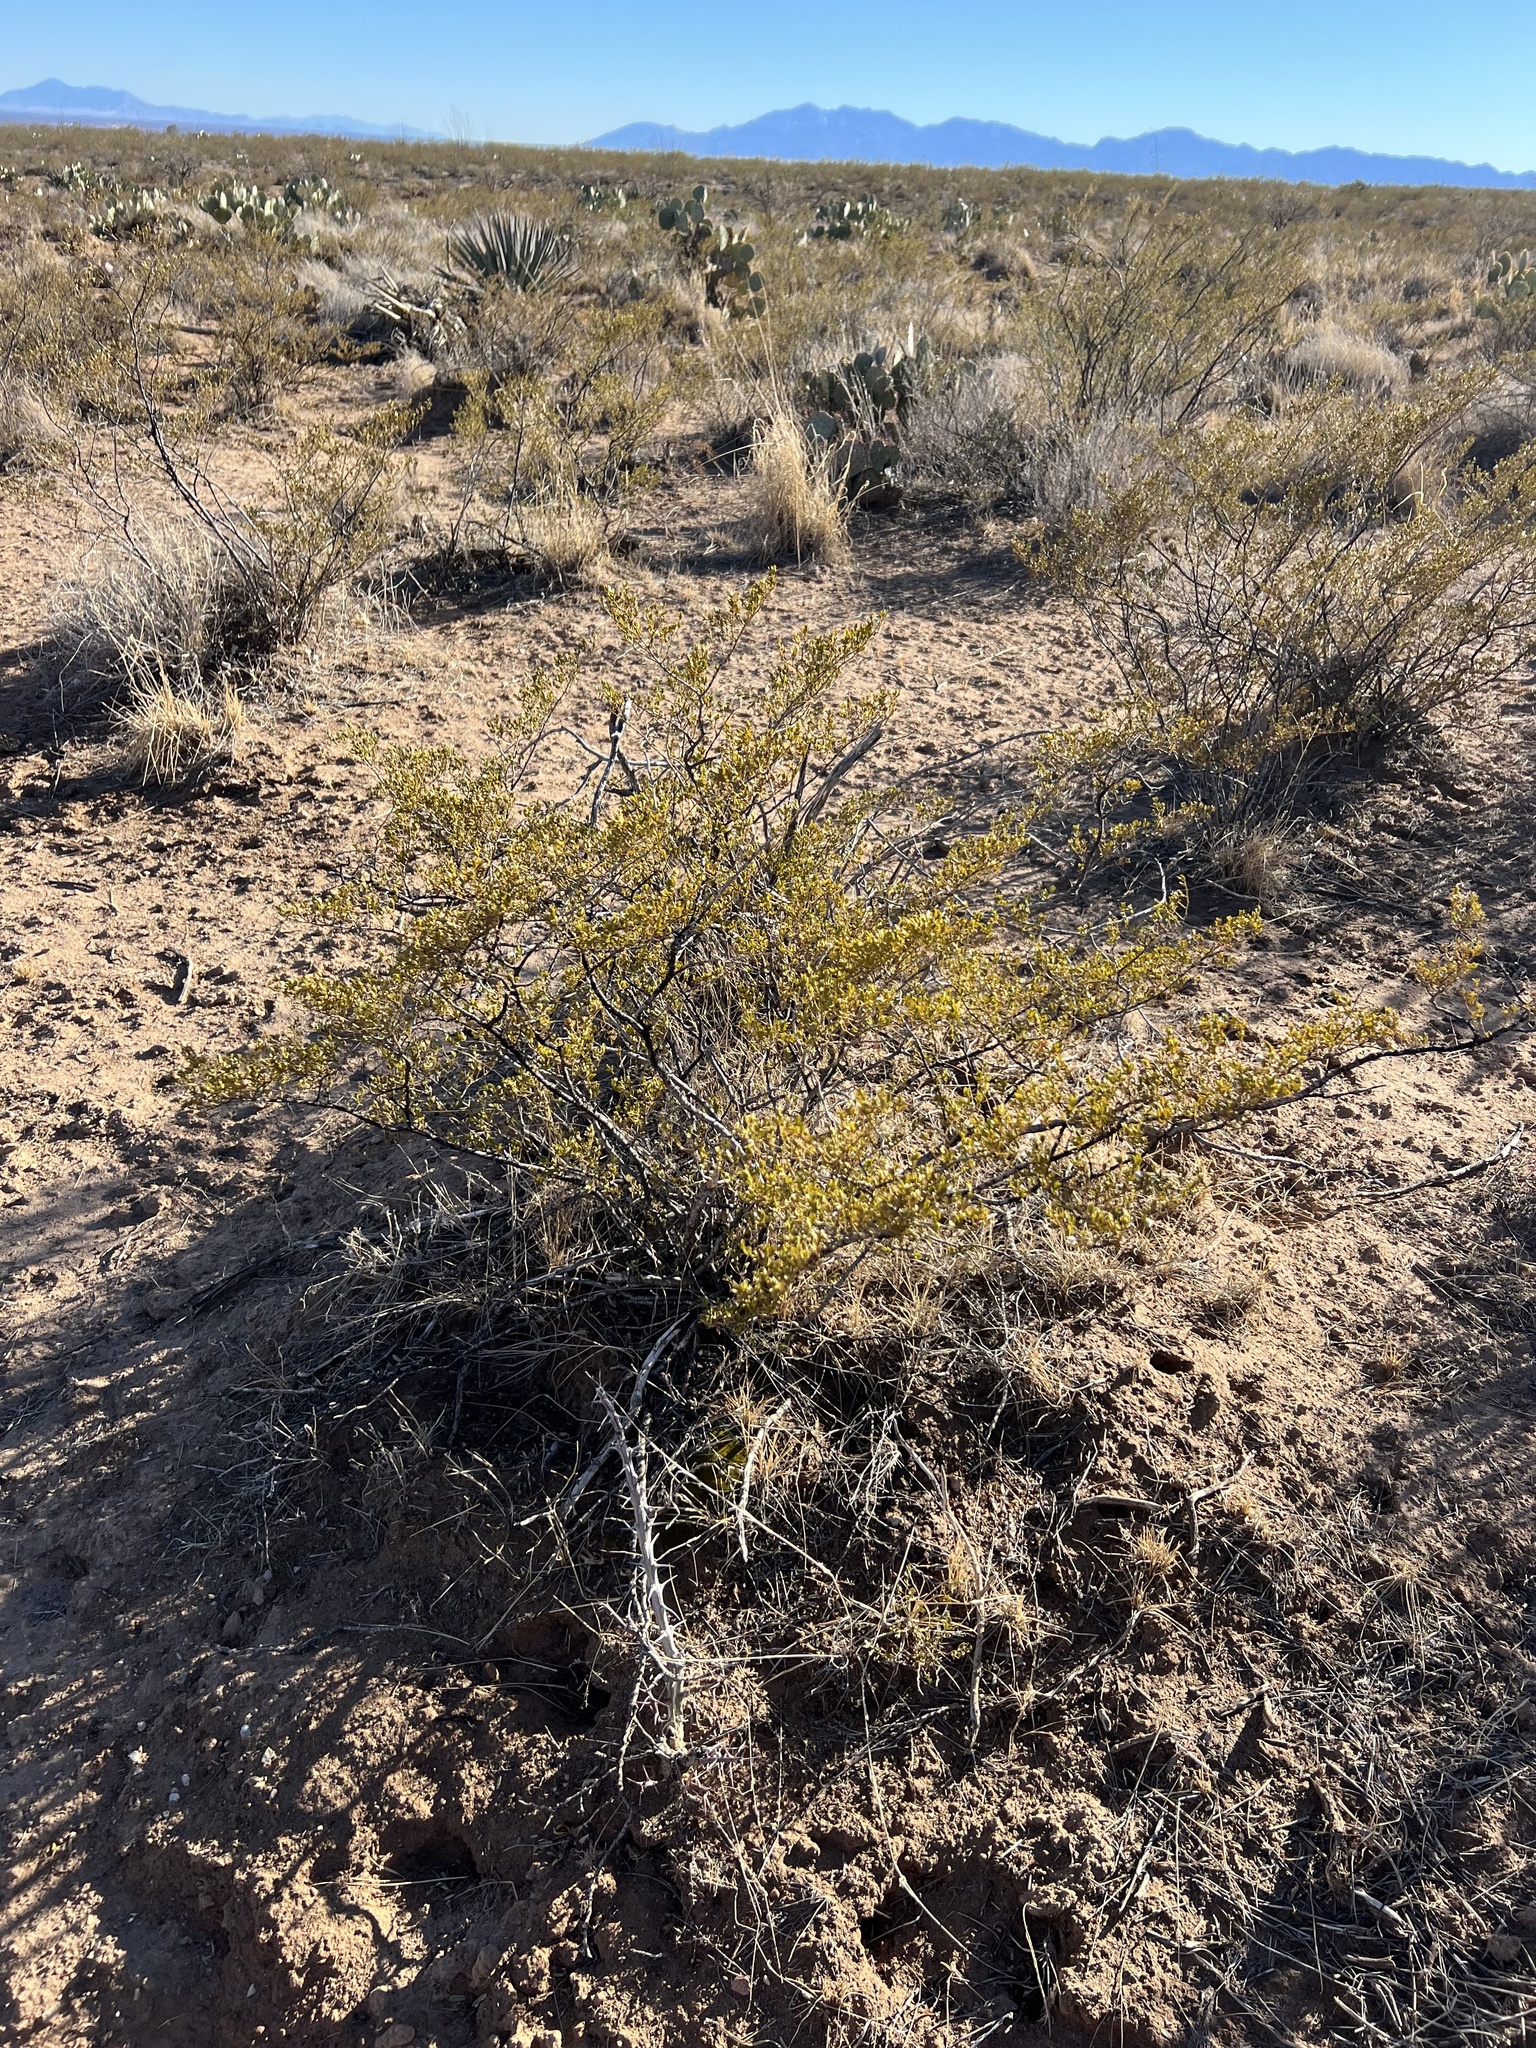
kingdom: Plantae
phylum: Tracheophyta
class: Magnoliopsida
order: Zygophyllales
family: Zygophyllaceae
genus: Larrea
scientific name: Larrea tridentata
